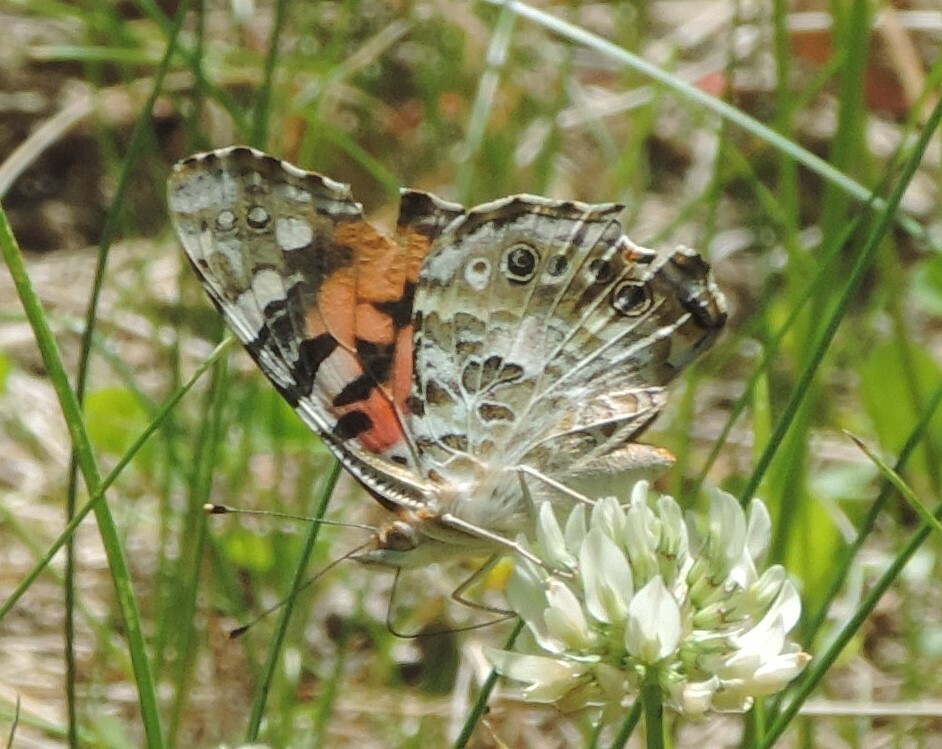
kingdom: Animalia
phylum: Arthropoda
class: Insecta
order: Lepidoptera
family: Nymphalidae
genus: Vanessa
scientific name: Vanessa cardui
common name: Painted lady
